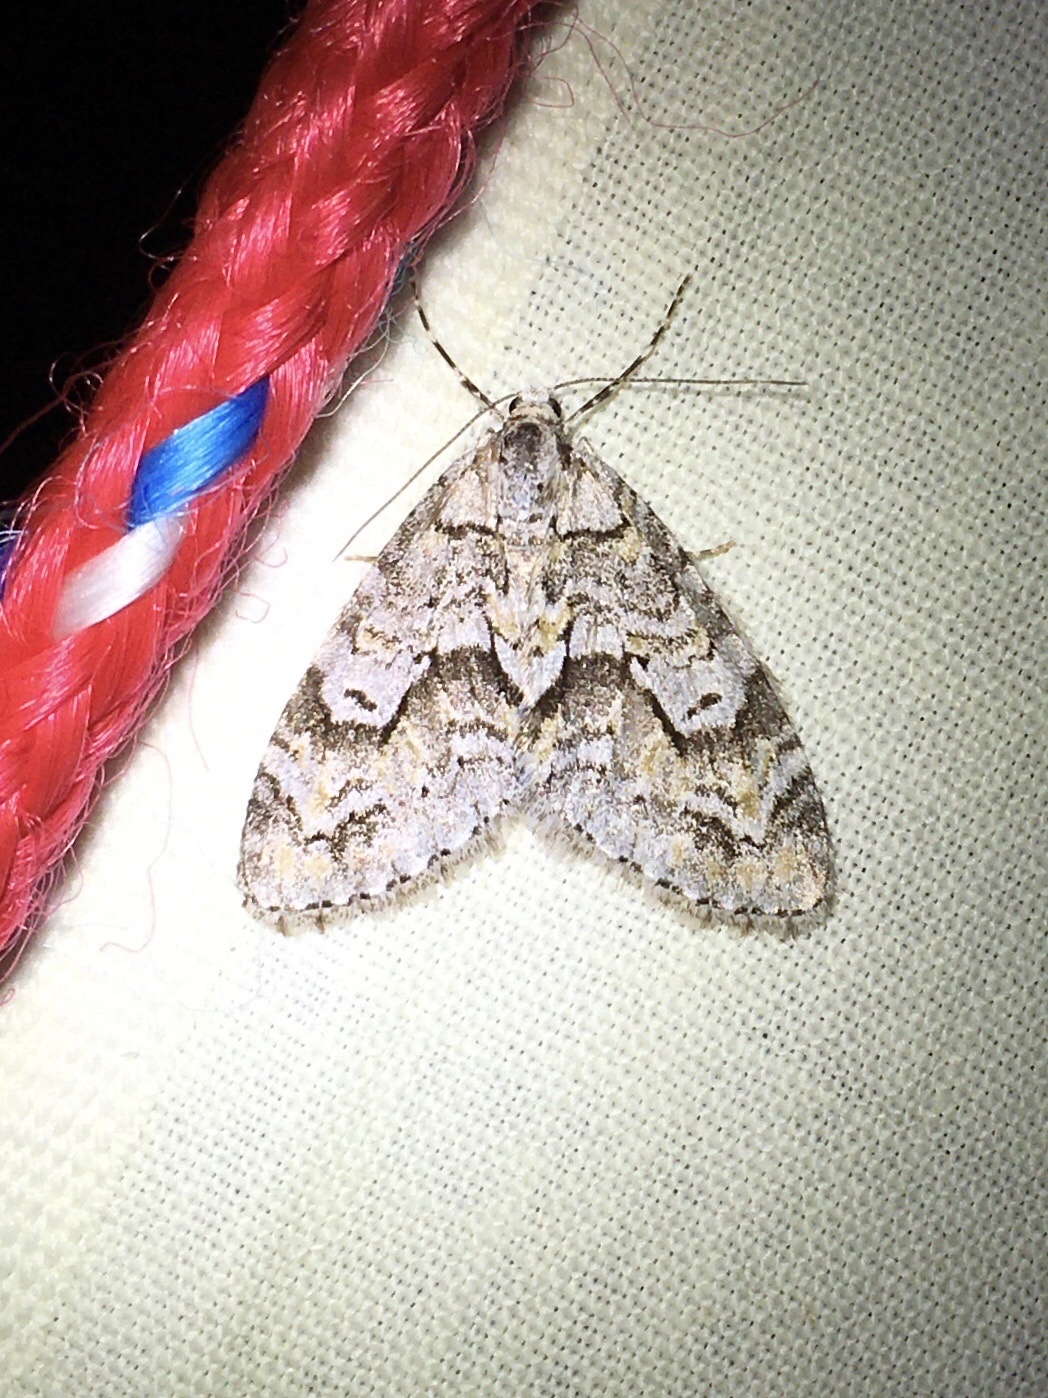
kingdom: Animalia
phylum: Arthropoda
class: Insecta
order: Lepidoptera
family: Geometridae
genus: Cladara
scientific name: Cladara limitaria
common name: Mottled gray carpet
